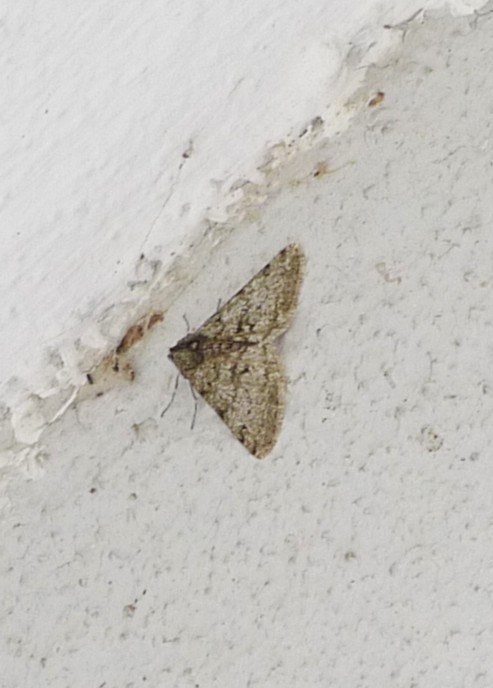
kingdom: Animalia
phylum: Arthropoda
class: Insecta
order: Lepidoptera
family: Geometridae
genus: Phigalia
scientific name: Phigalia pilosaria
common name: Pale brindled beauty
